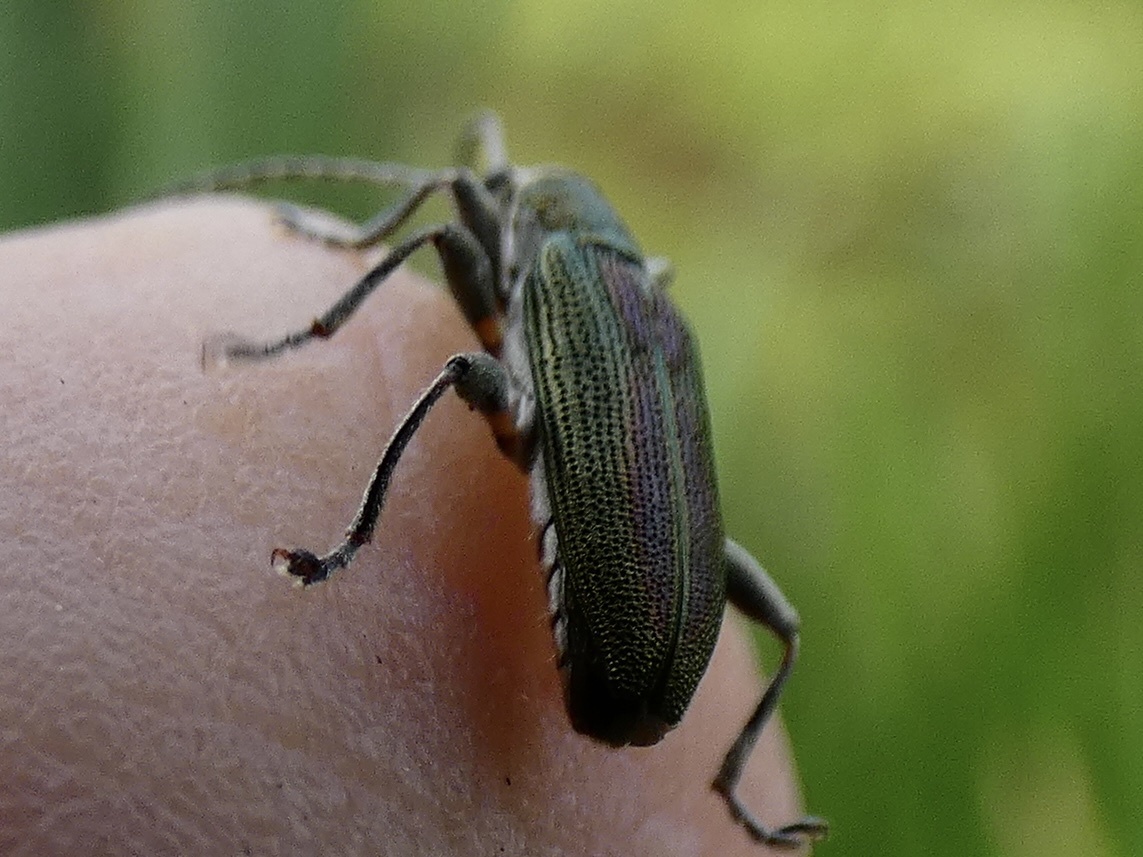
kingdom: Animalia
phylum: Arthropoda
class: Insecta
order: Coleoptera
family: Chrysomelidae
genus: Donacia
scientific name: Donacia vulgaris
